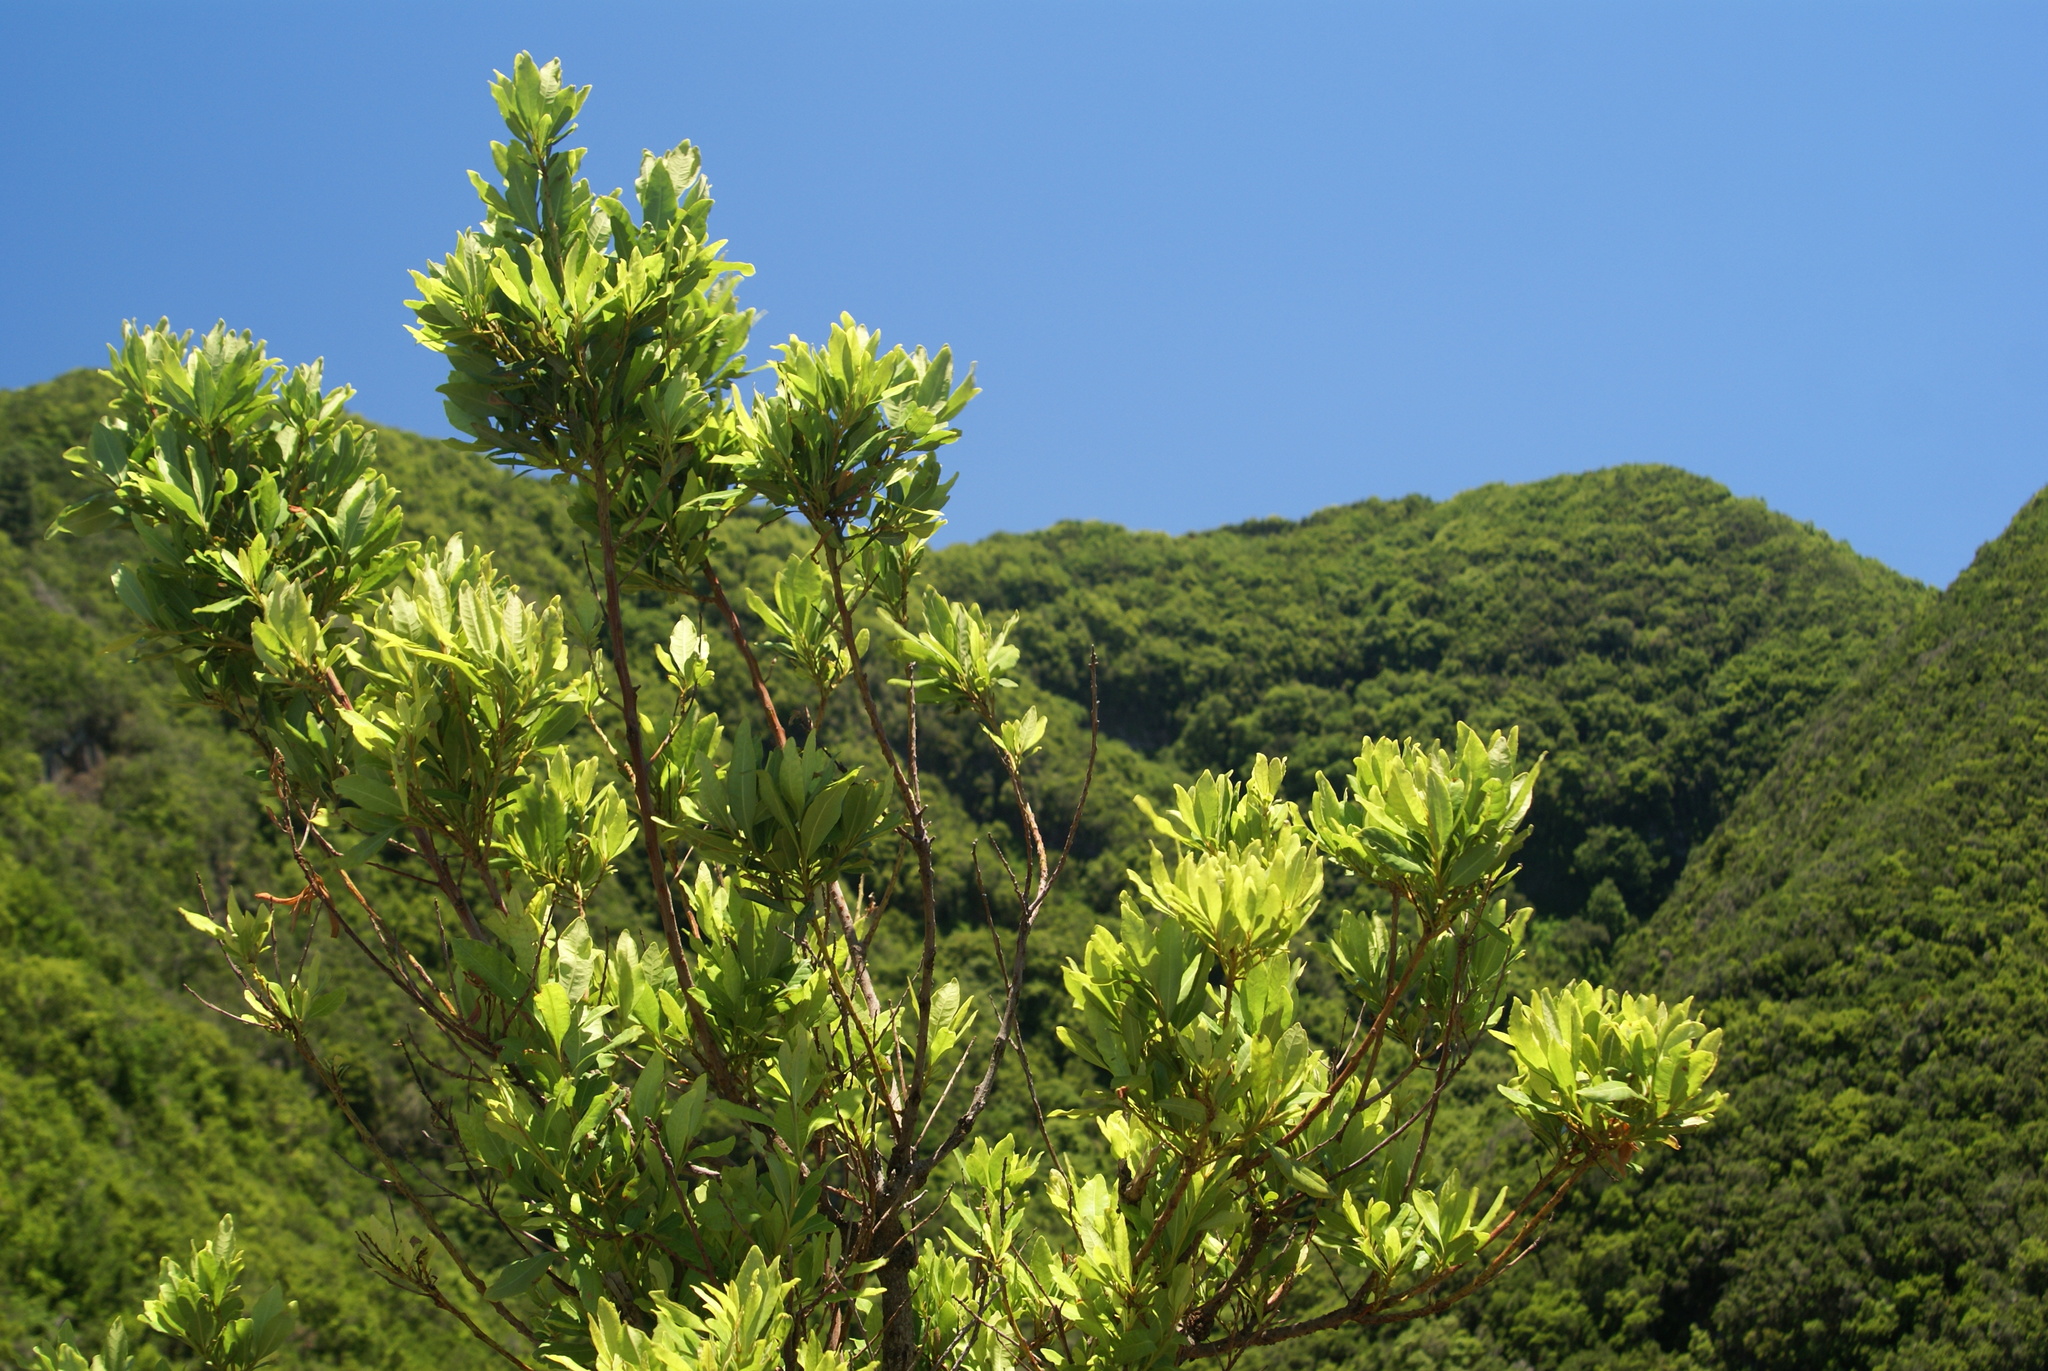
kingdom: Plantae
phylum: Tracheophyta
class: Magnoliopsida
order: Fagales
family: Myricaceae
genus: Morella
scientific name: Morella faya
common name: Firetree
